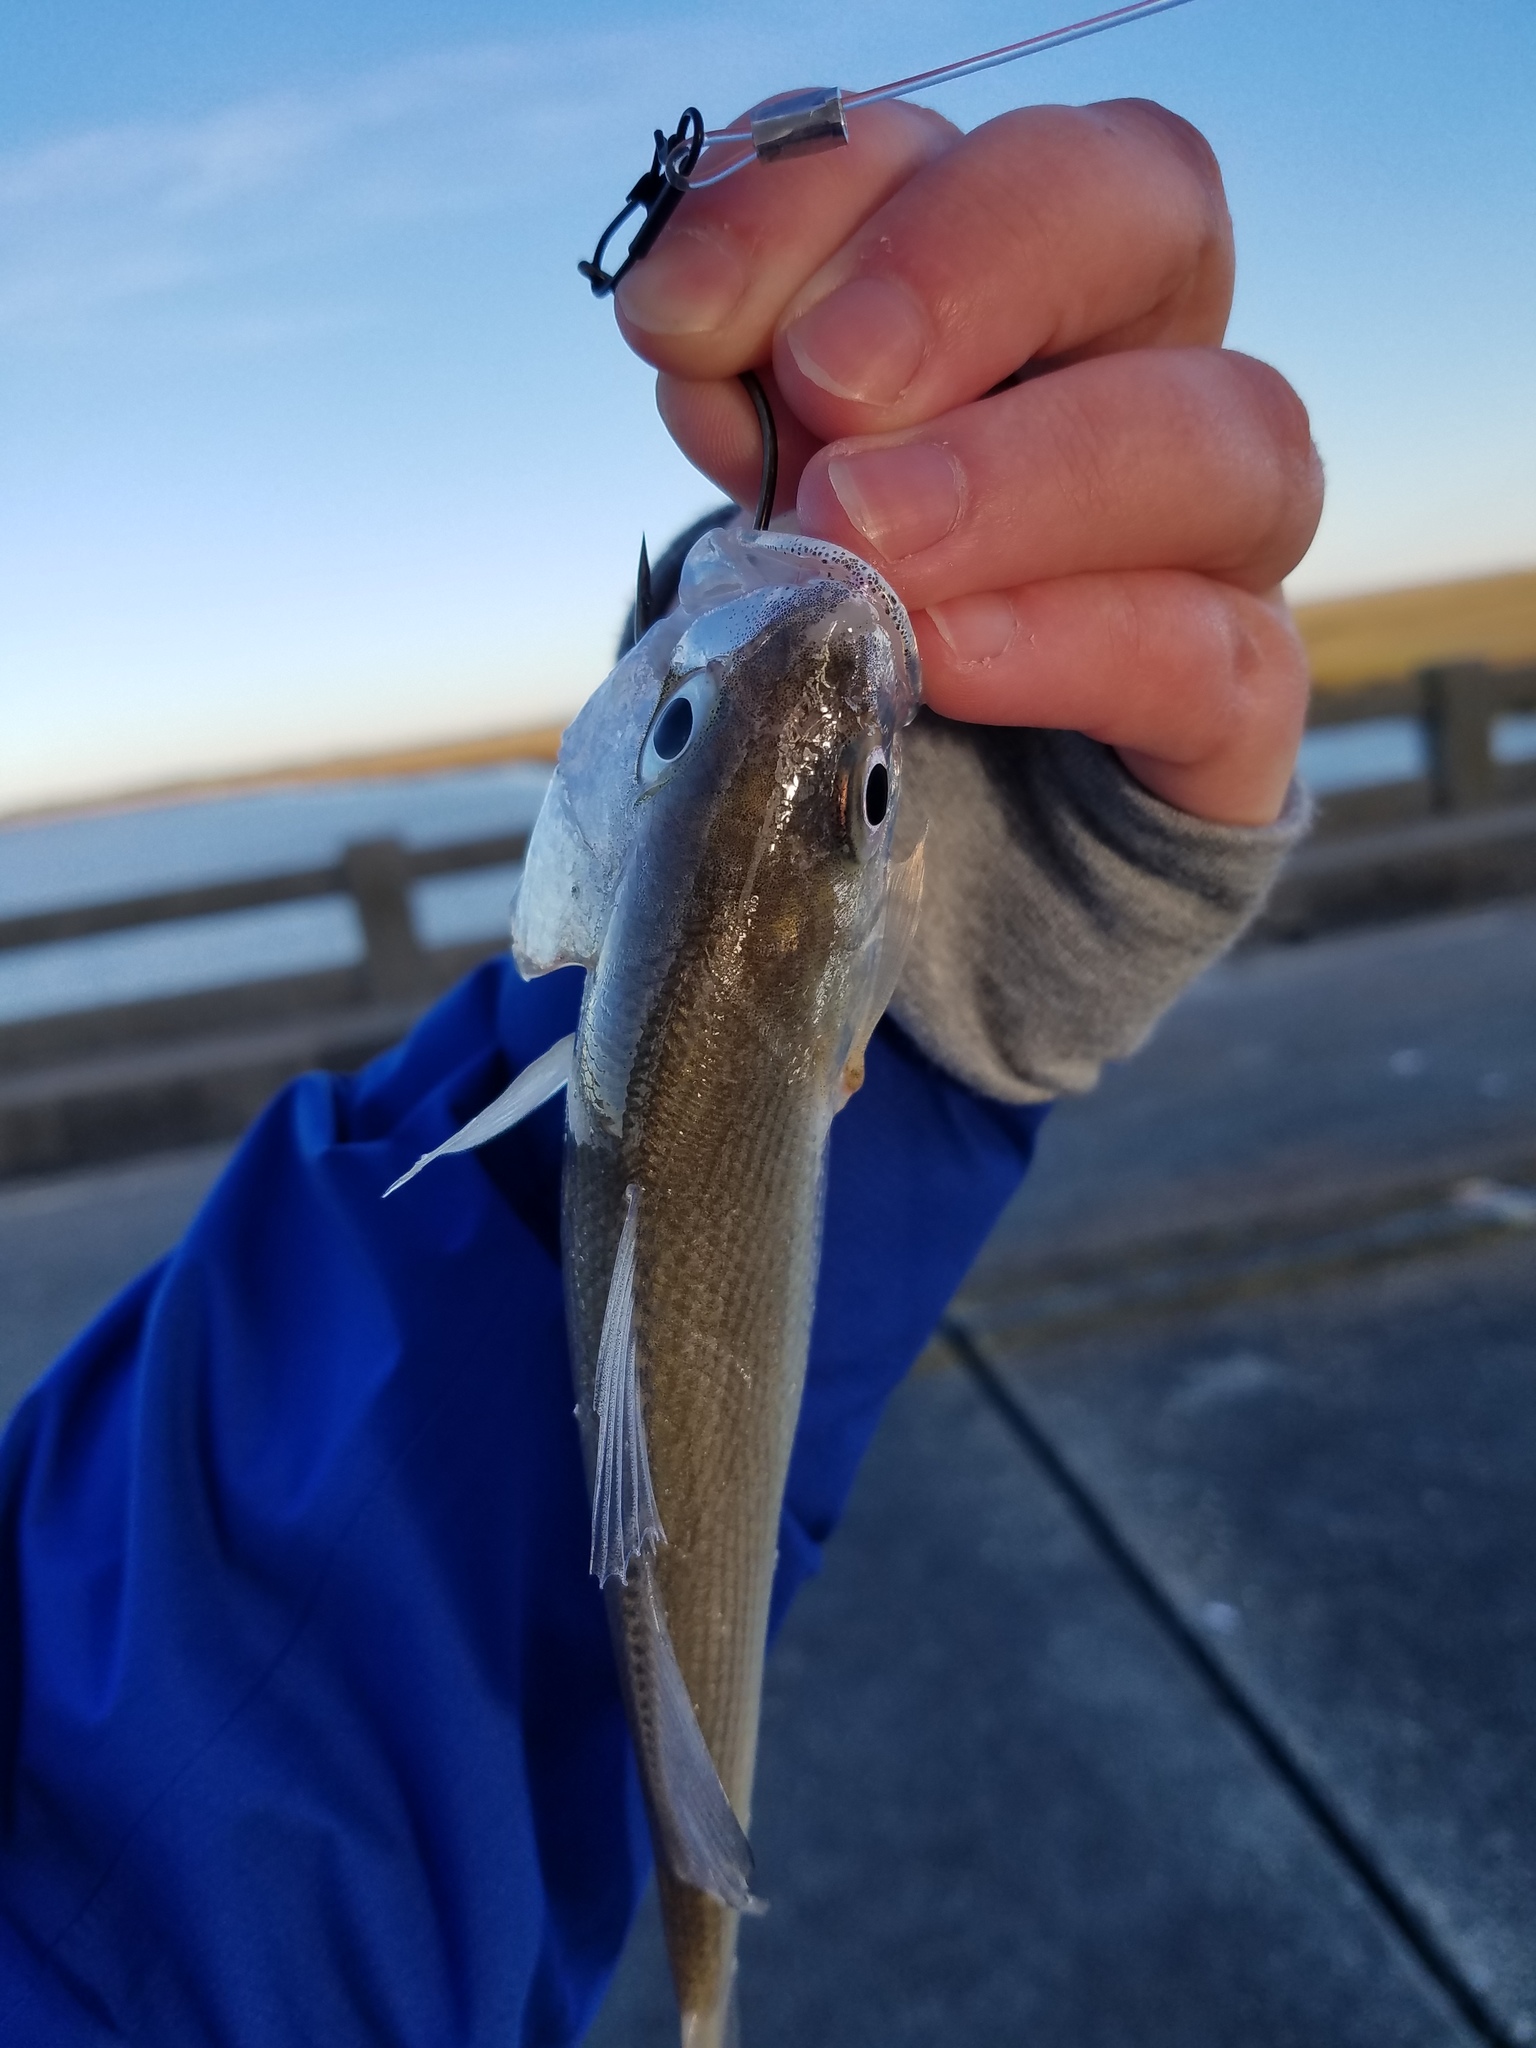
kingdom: Animalia
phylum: Chordata
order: Perciformes
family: Sciaenidae
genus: Bairdiella
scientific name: Bairdiella chrysoura
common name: Silver perch
